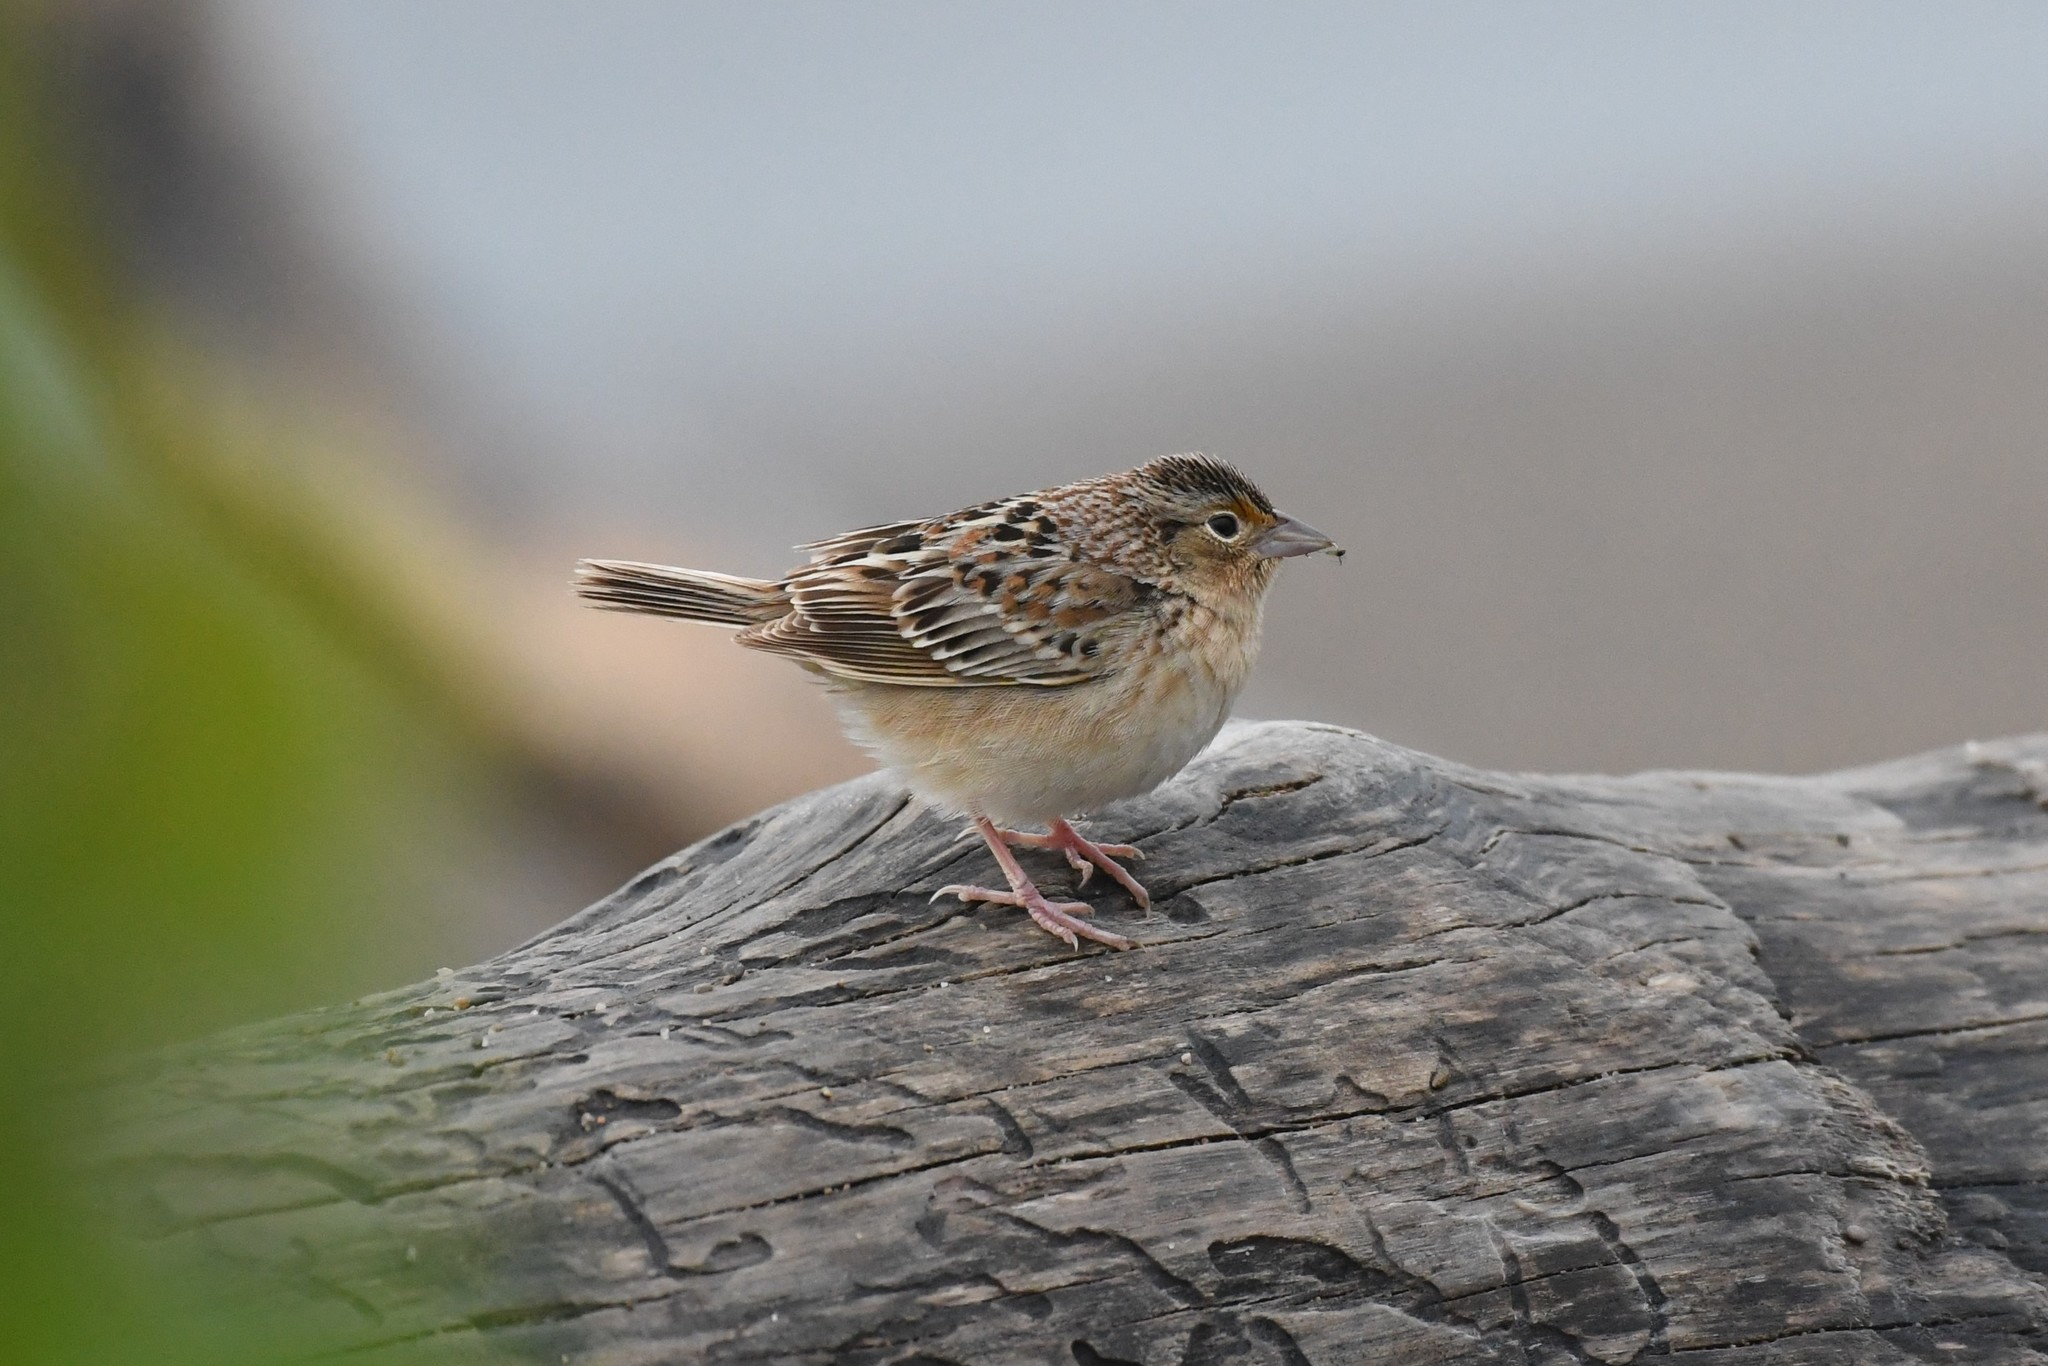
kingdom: Animalia
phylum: Chordata
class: Aves
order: Passeriformes
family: Passerellidae
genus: Ammodramus
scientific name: Ammodramus savannarum
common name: Grasshopper sparrow
